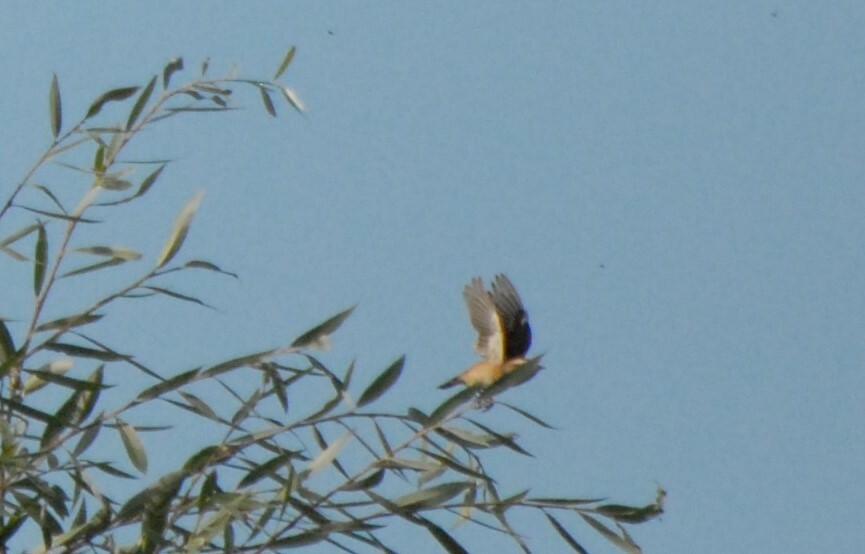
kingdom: Animalia
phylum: Chordata
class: Aves
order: Passeriformes
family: Muscicapidae
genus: Saxicola
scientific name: Saxicola rubetra
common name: Whinchat
